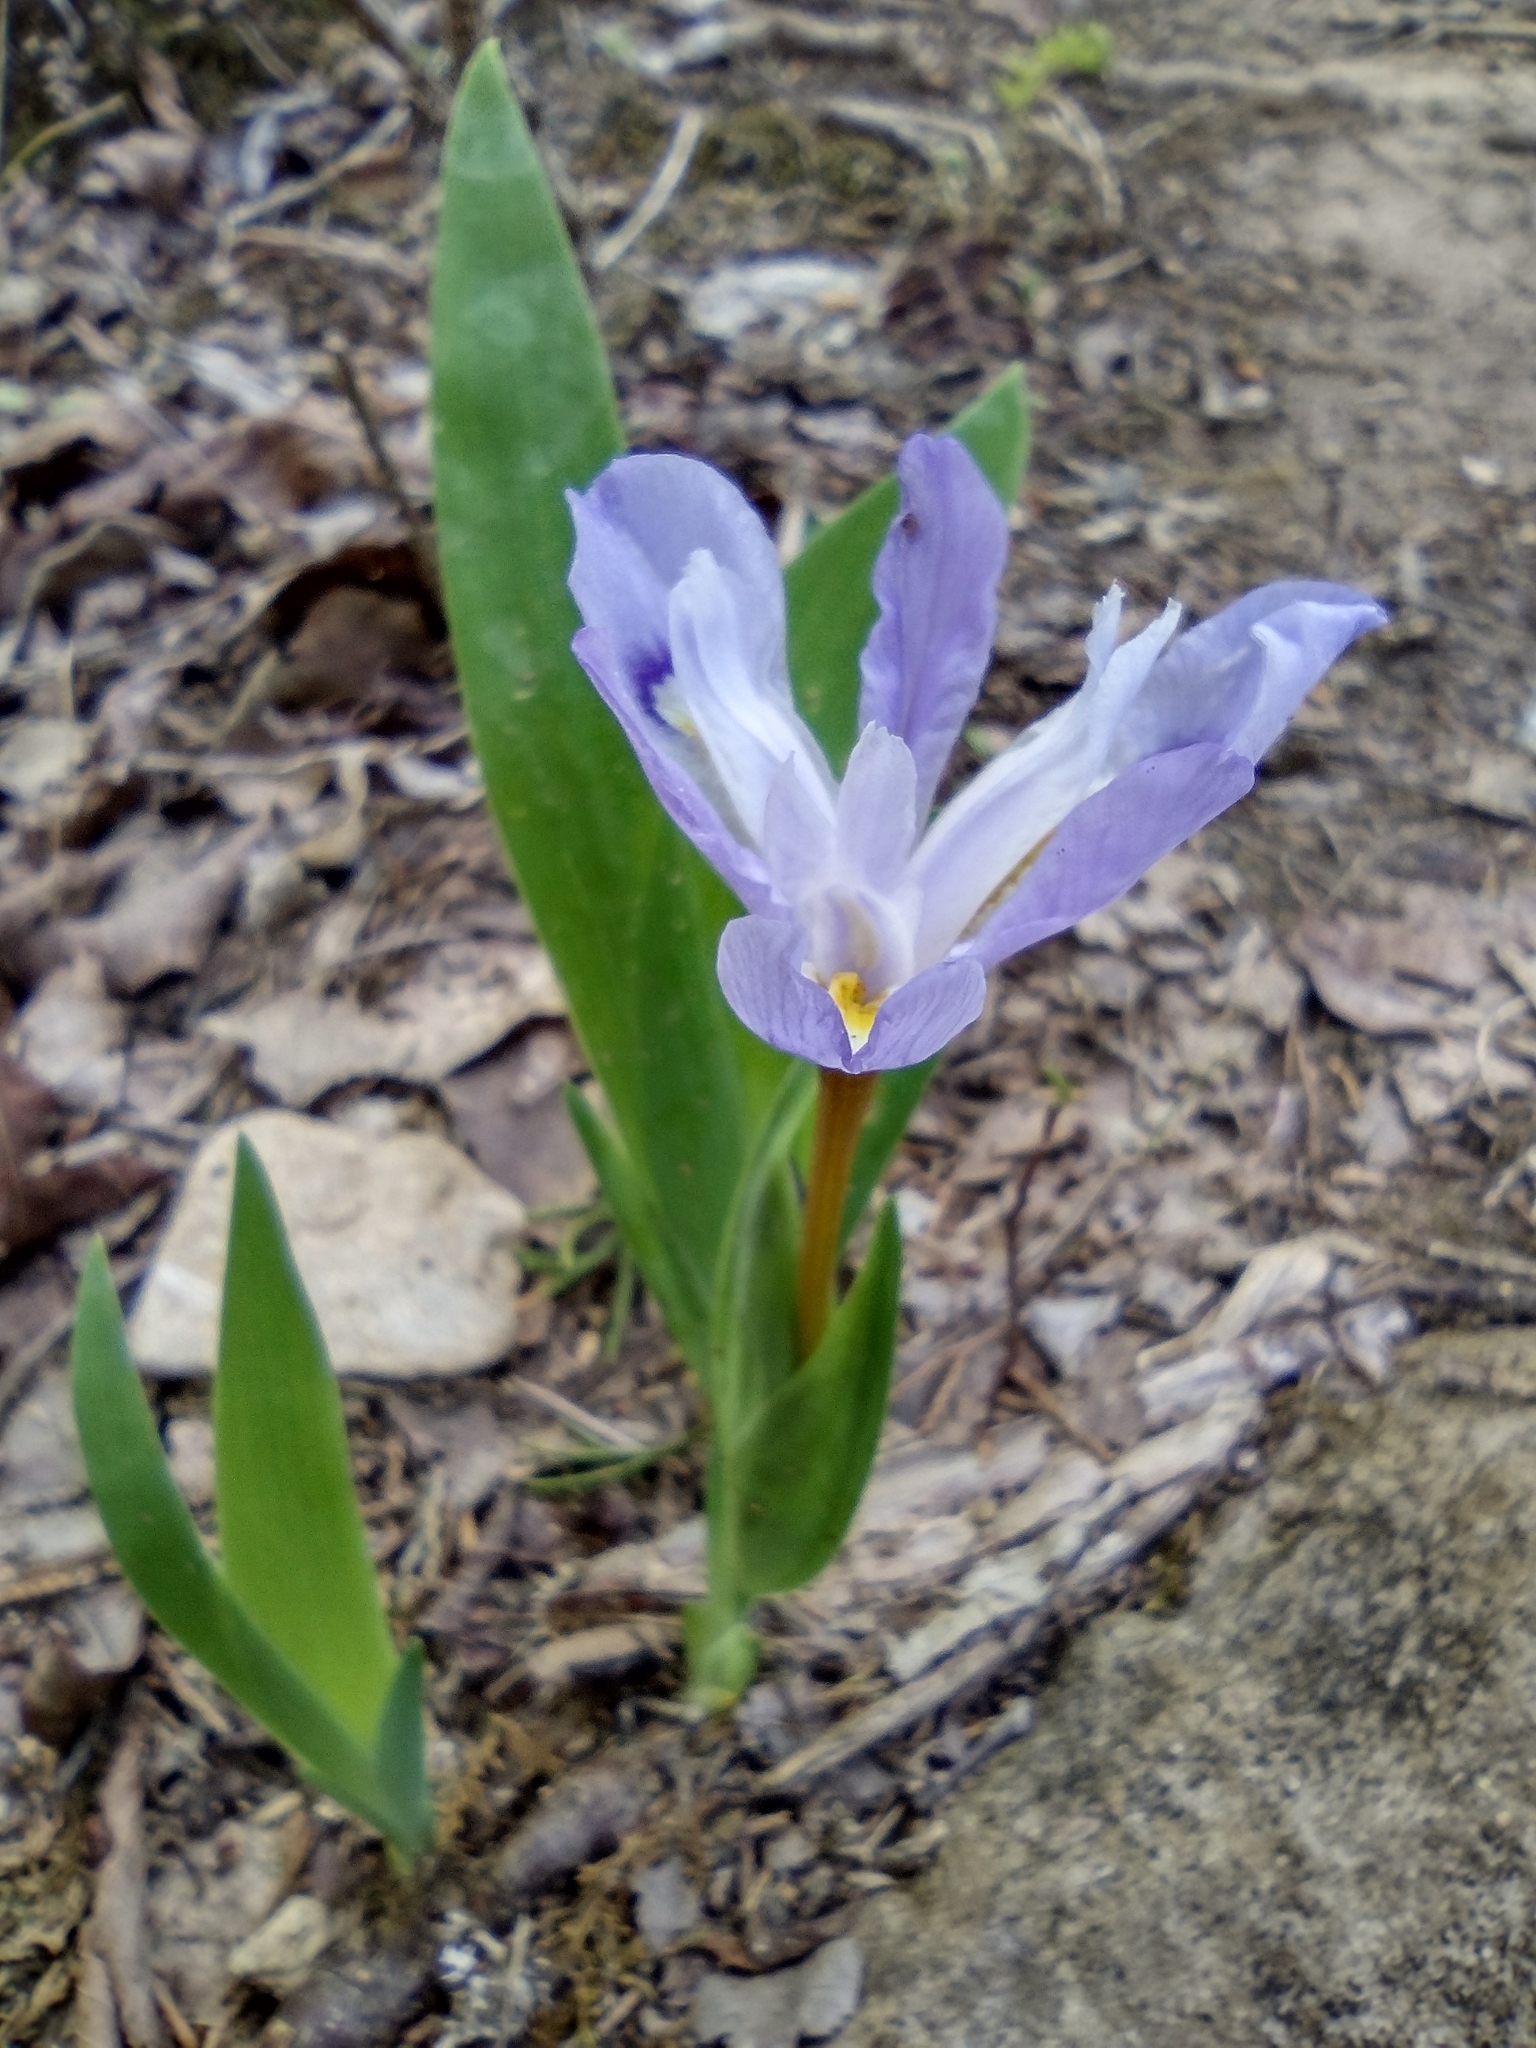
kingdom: Plantae
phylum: Tracheophyta
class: Liliopsida
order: Asparagales
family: Iridaceae
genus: Iris
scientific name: Iris cristata
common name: Crested iris
